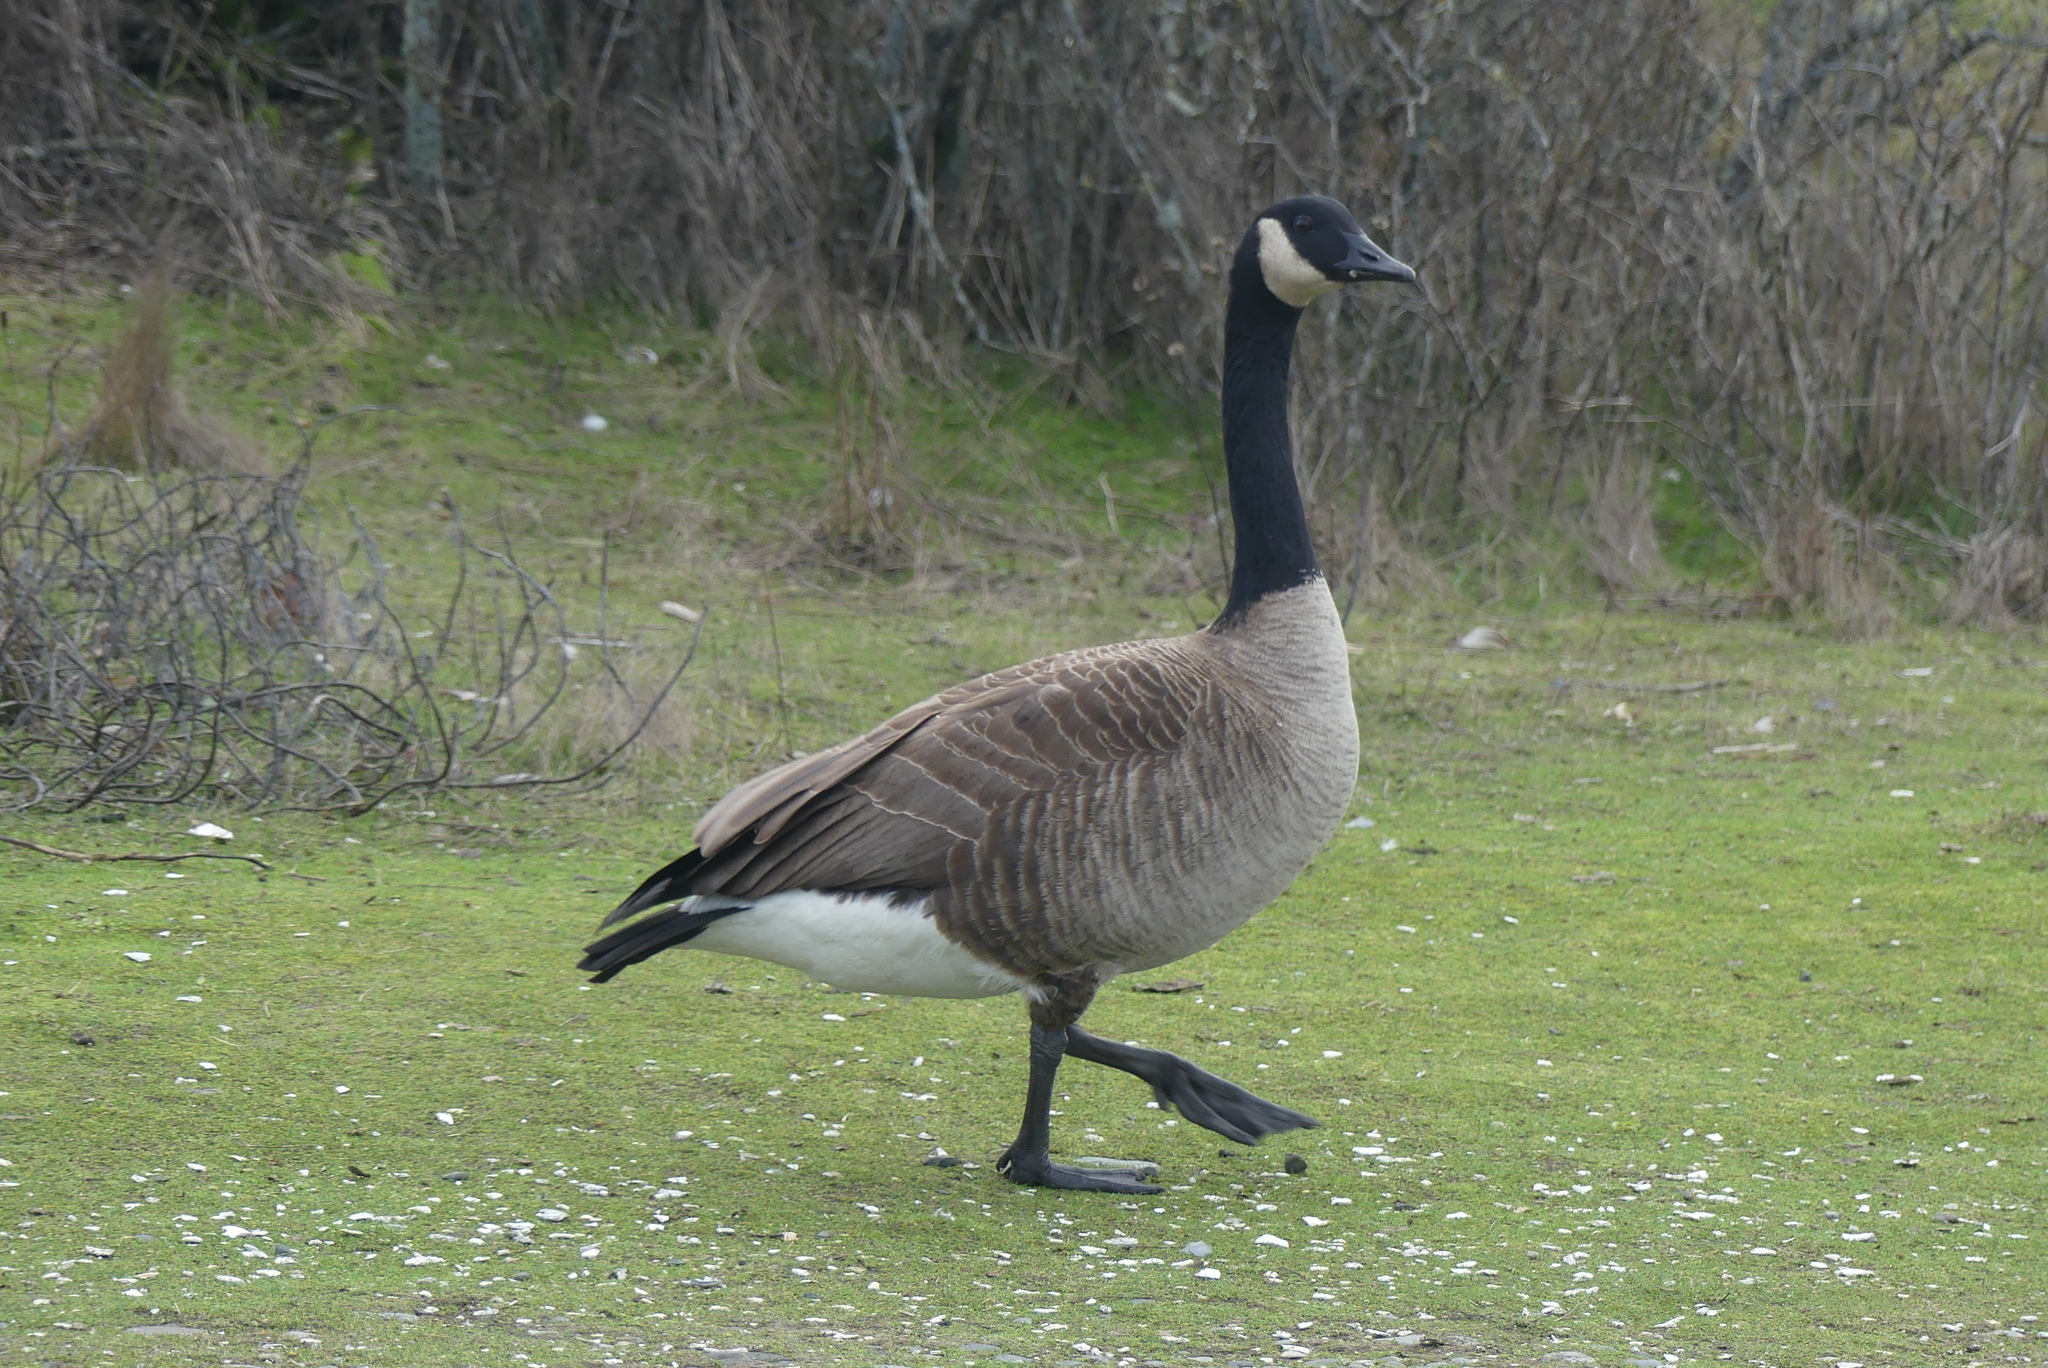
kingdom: Animalia
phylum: Chordata
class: Aves
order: Anseriformes
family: Anatidae
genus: Branta
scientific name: Branta canadensis
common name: Canada goose
